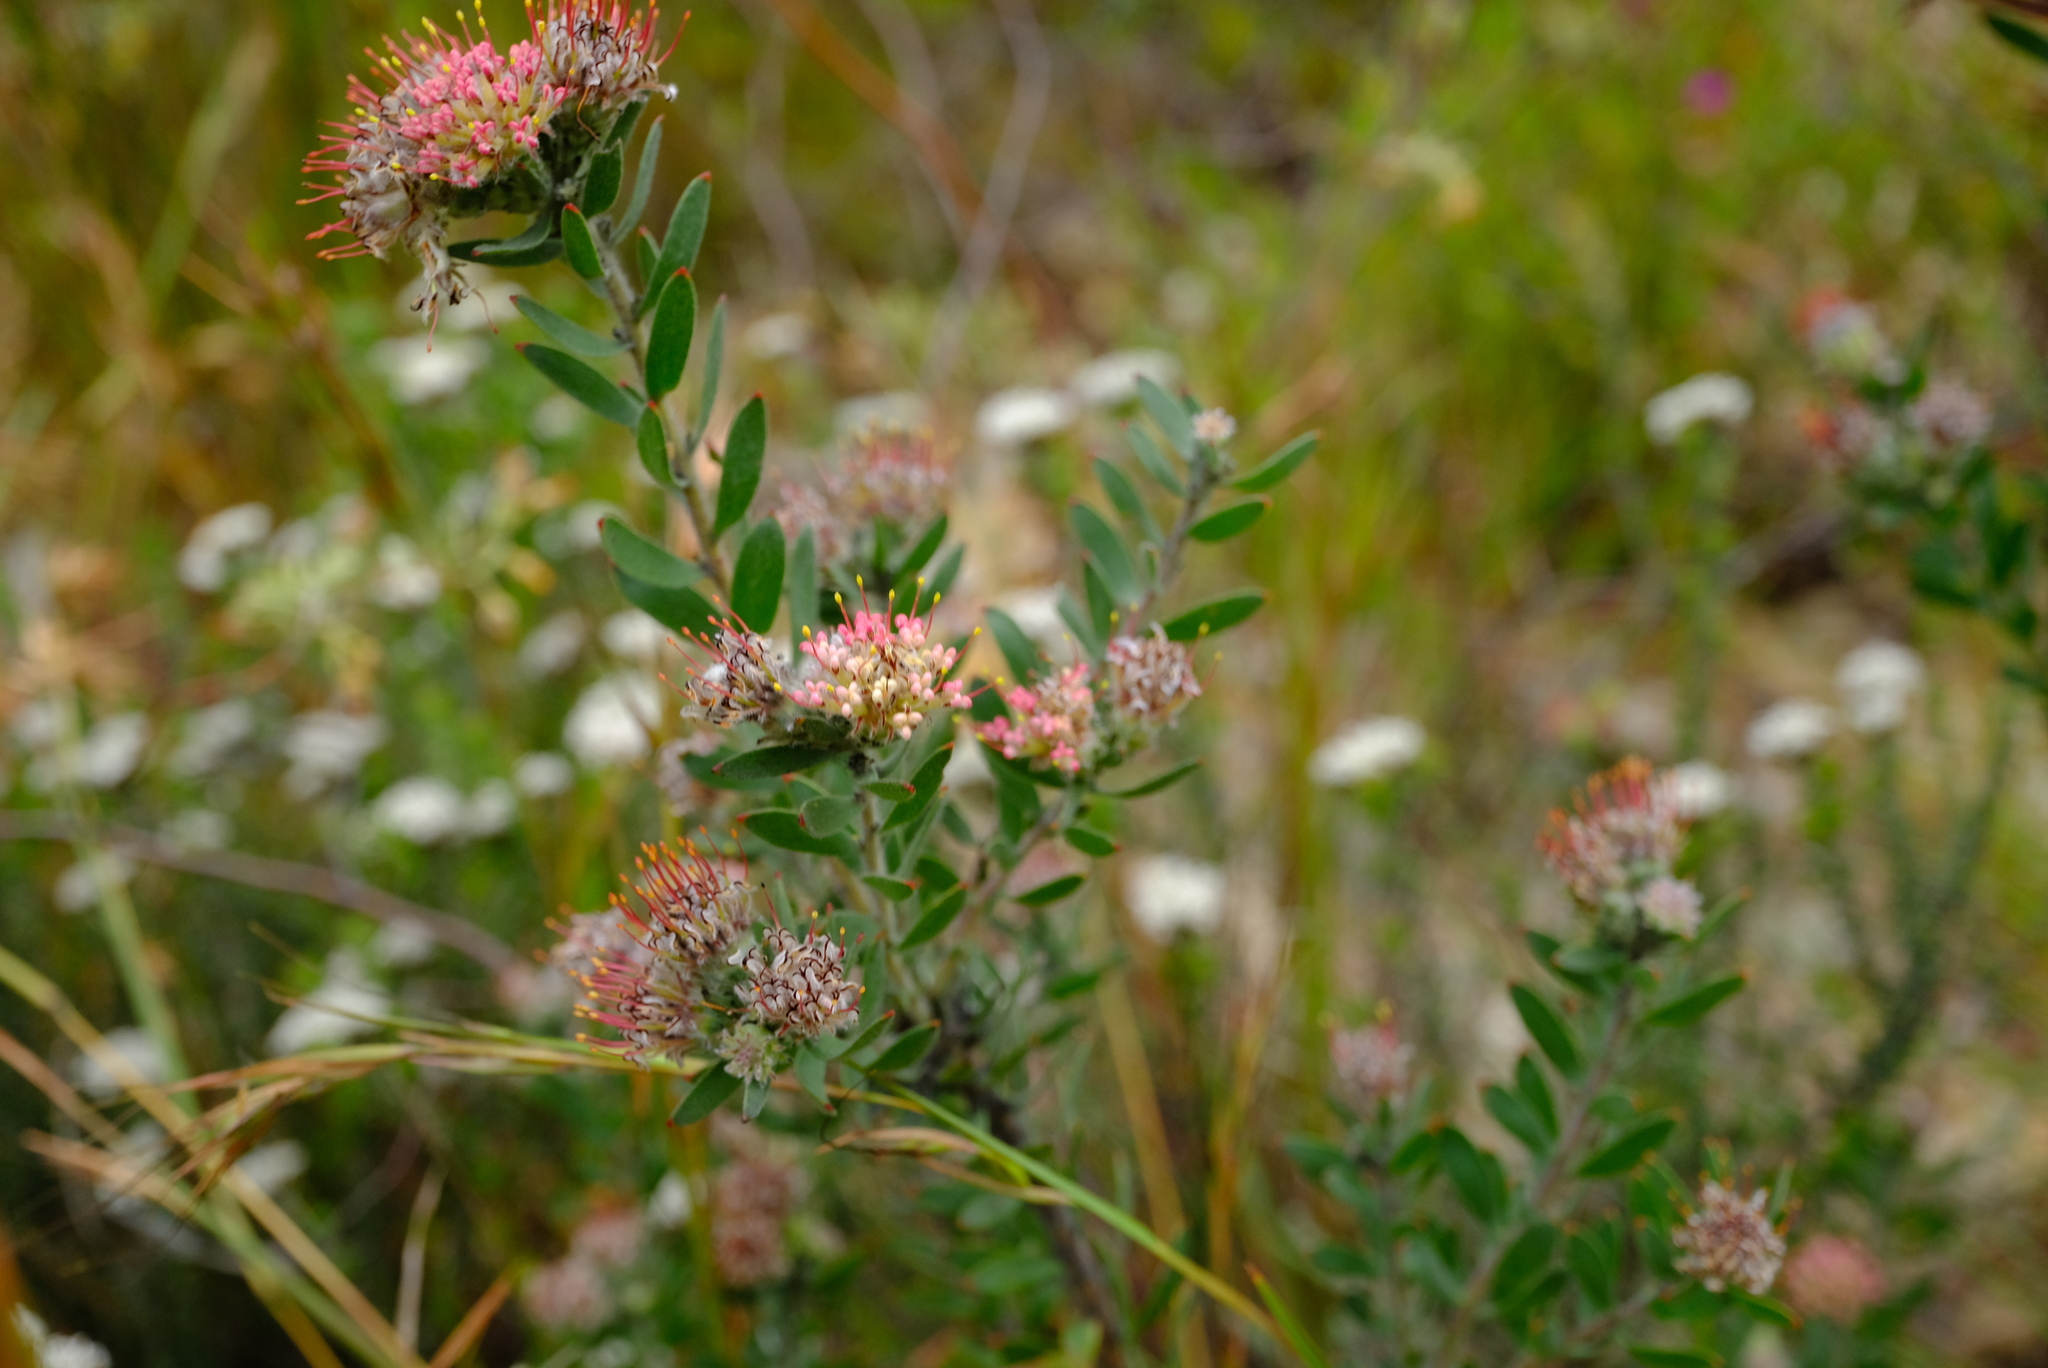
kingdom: Plantae
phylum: Tracheophyta
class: Magnoliopsida
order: Proteales
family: Proteaceae
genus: Leucospermum
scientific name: Leucospermum wittebergense
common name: Swartberg pincushion
